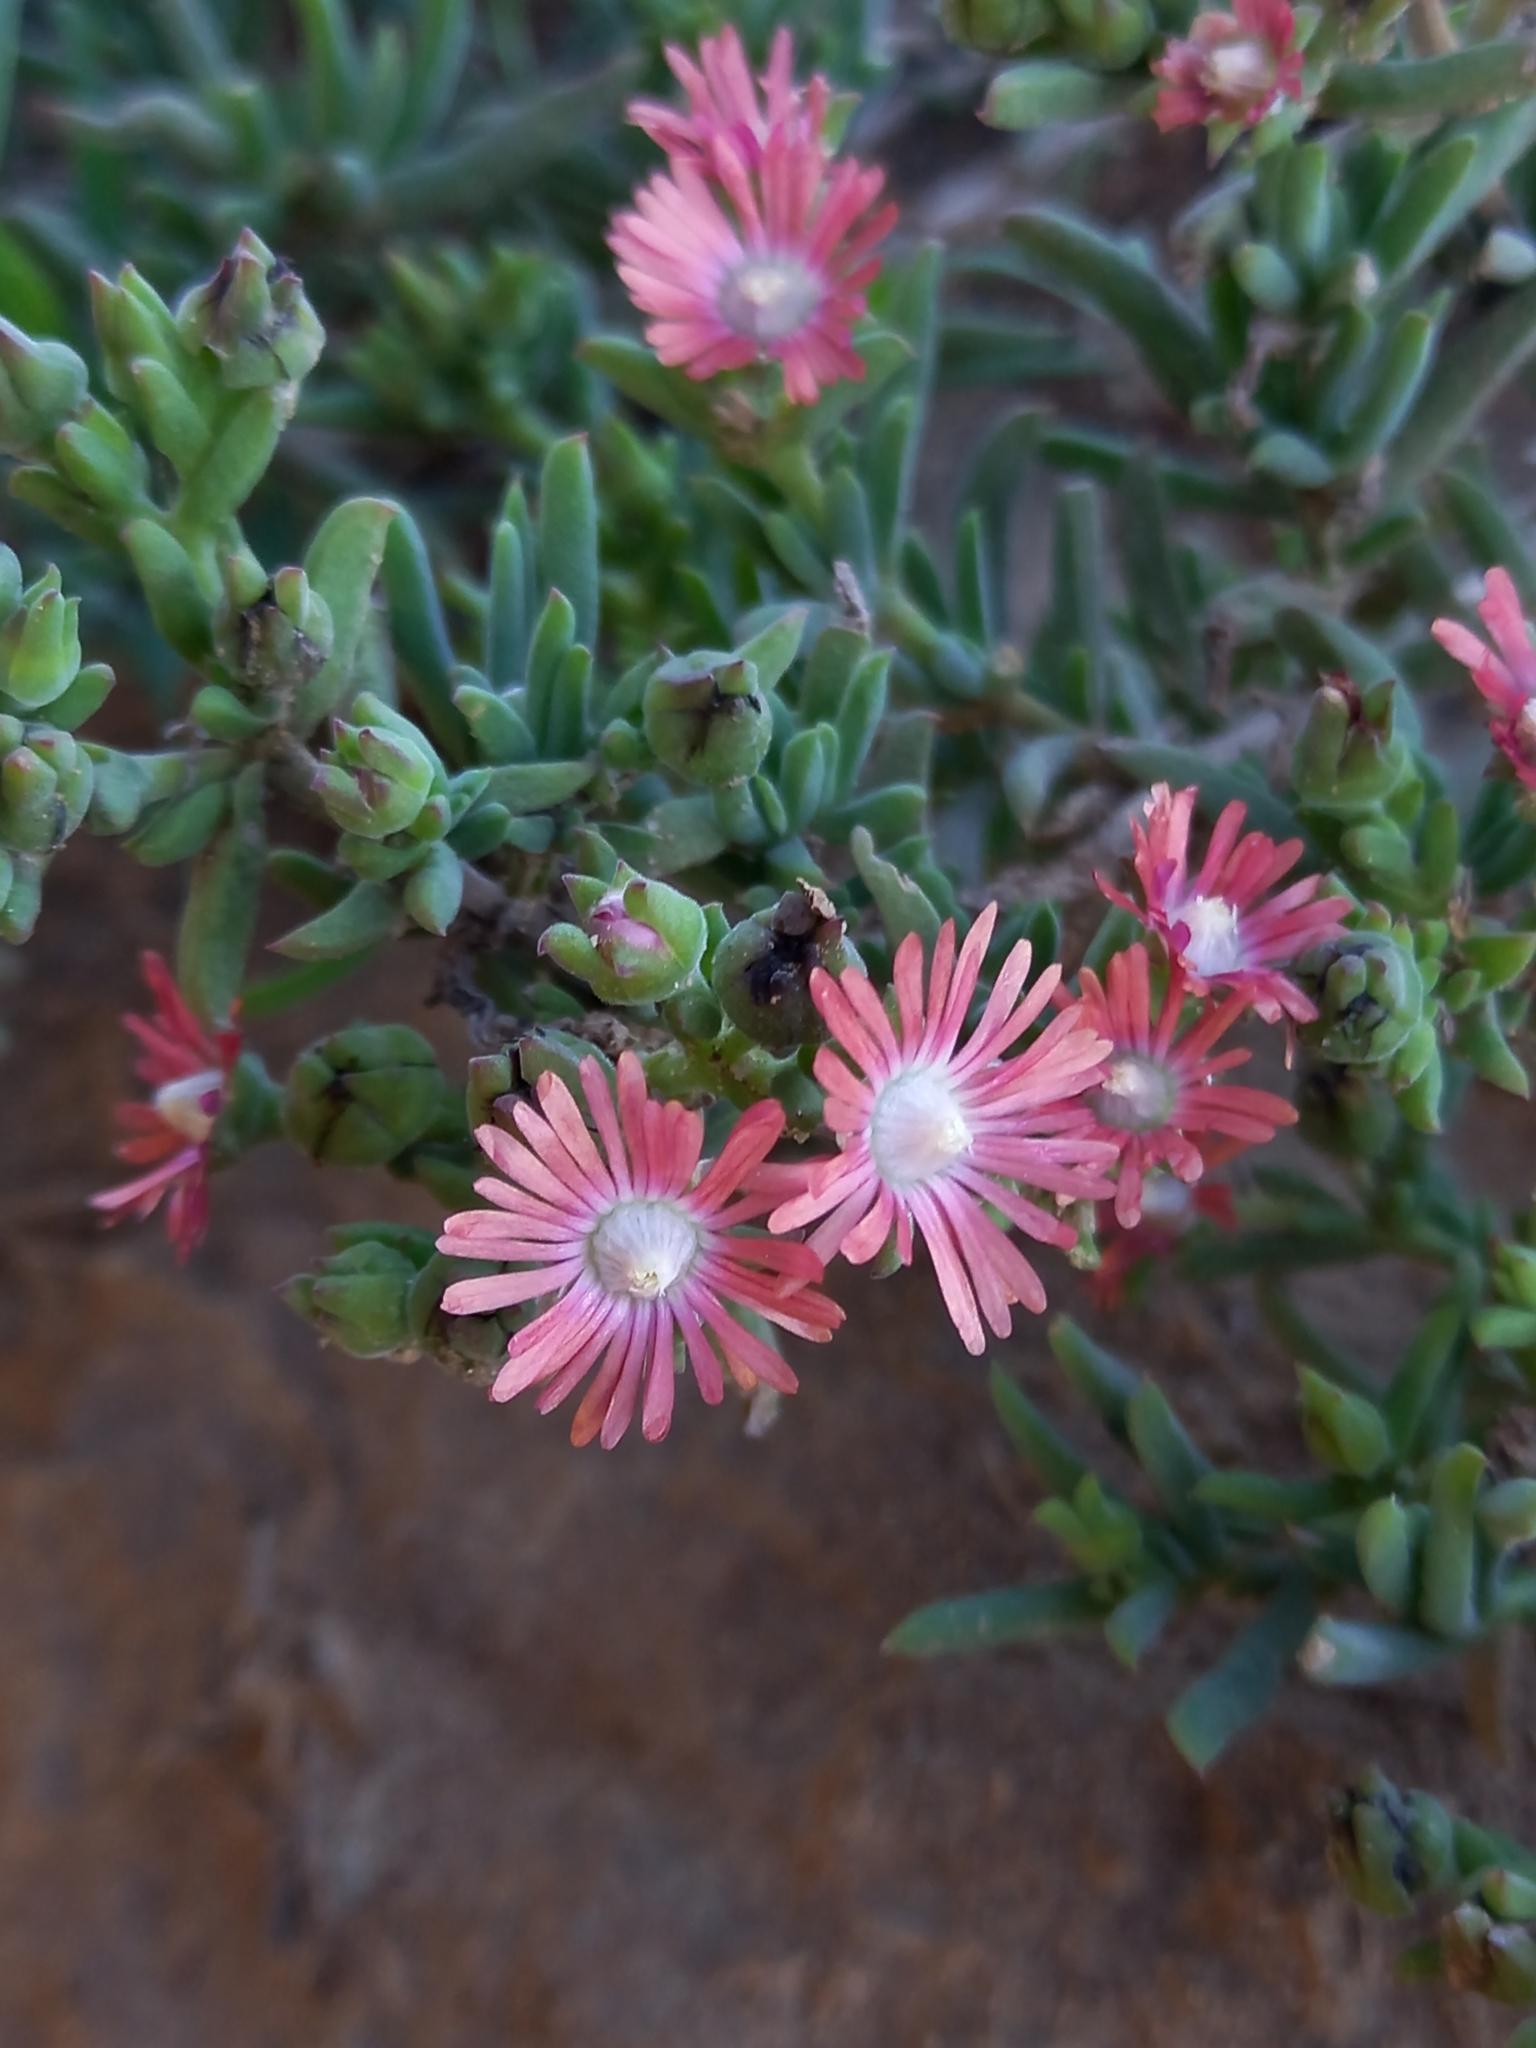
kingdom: Plantae
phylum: Tracheophyta
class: Magnoliopsida
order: Caryophyllales
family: Aizoaceae
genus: Delosperma
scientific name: Delosperma testaceum
